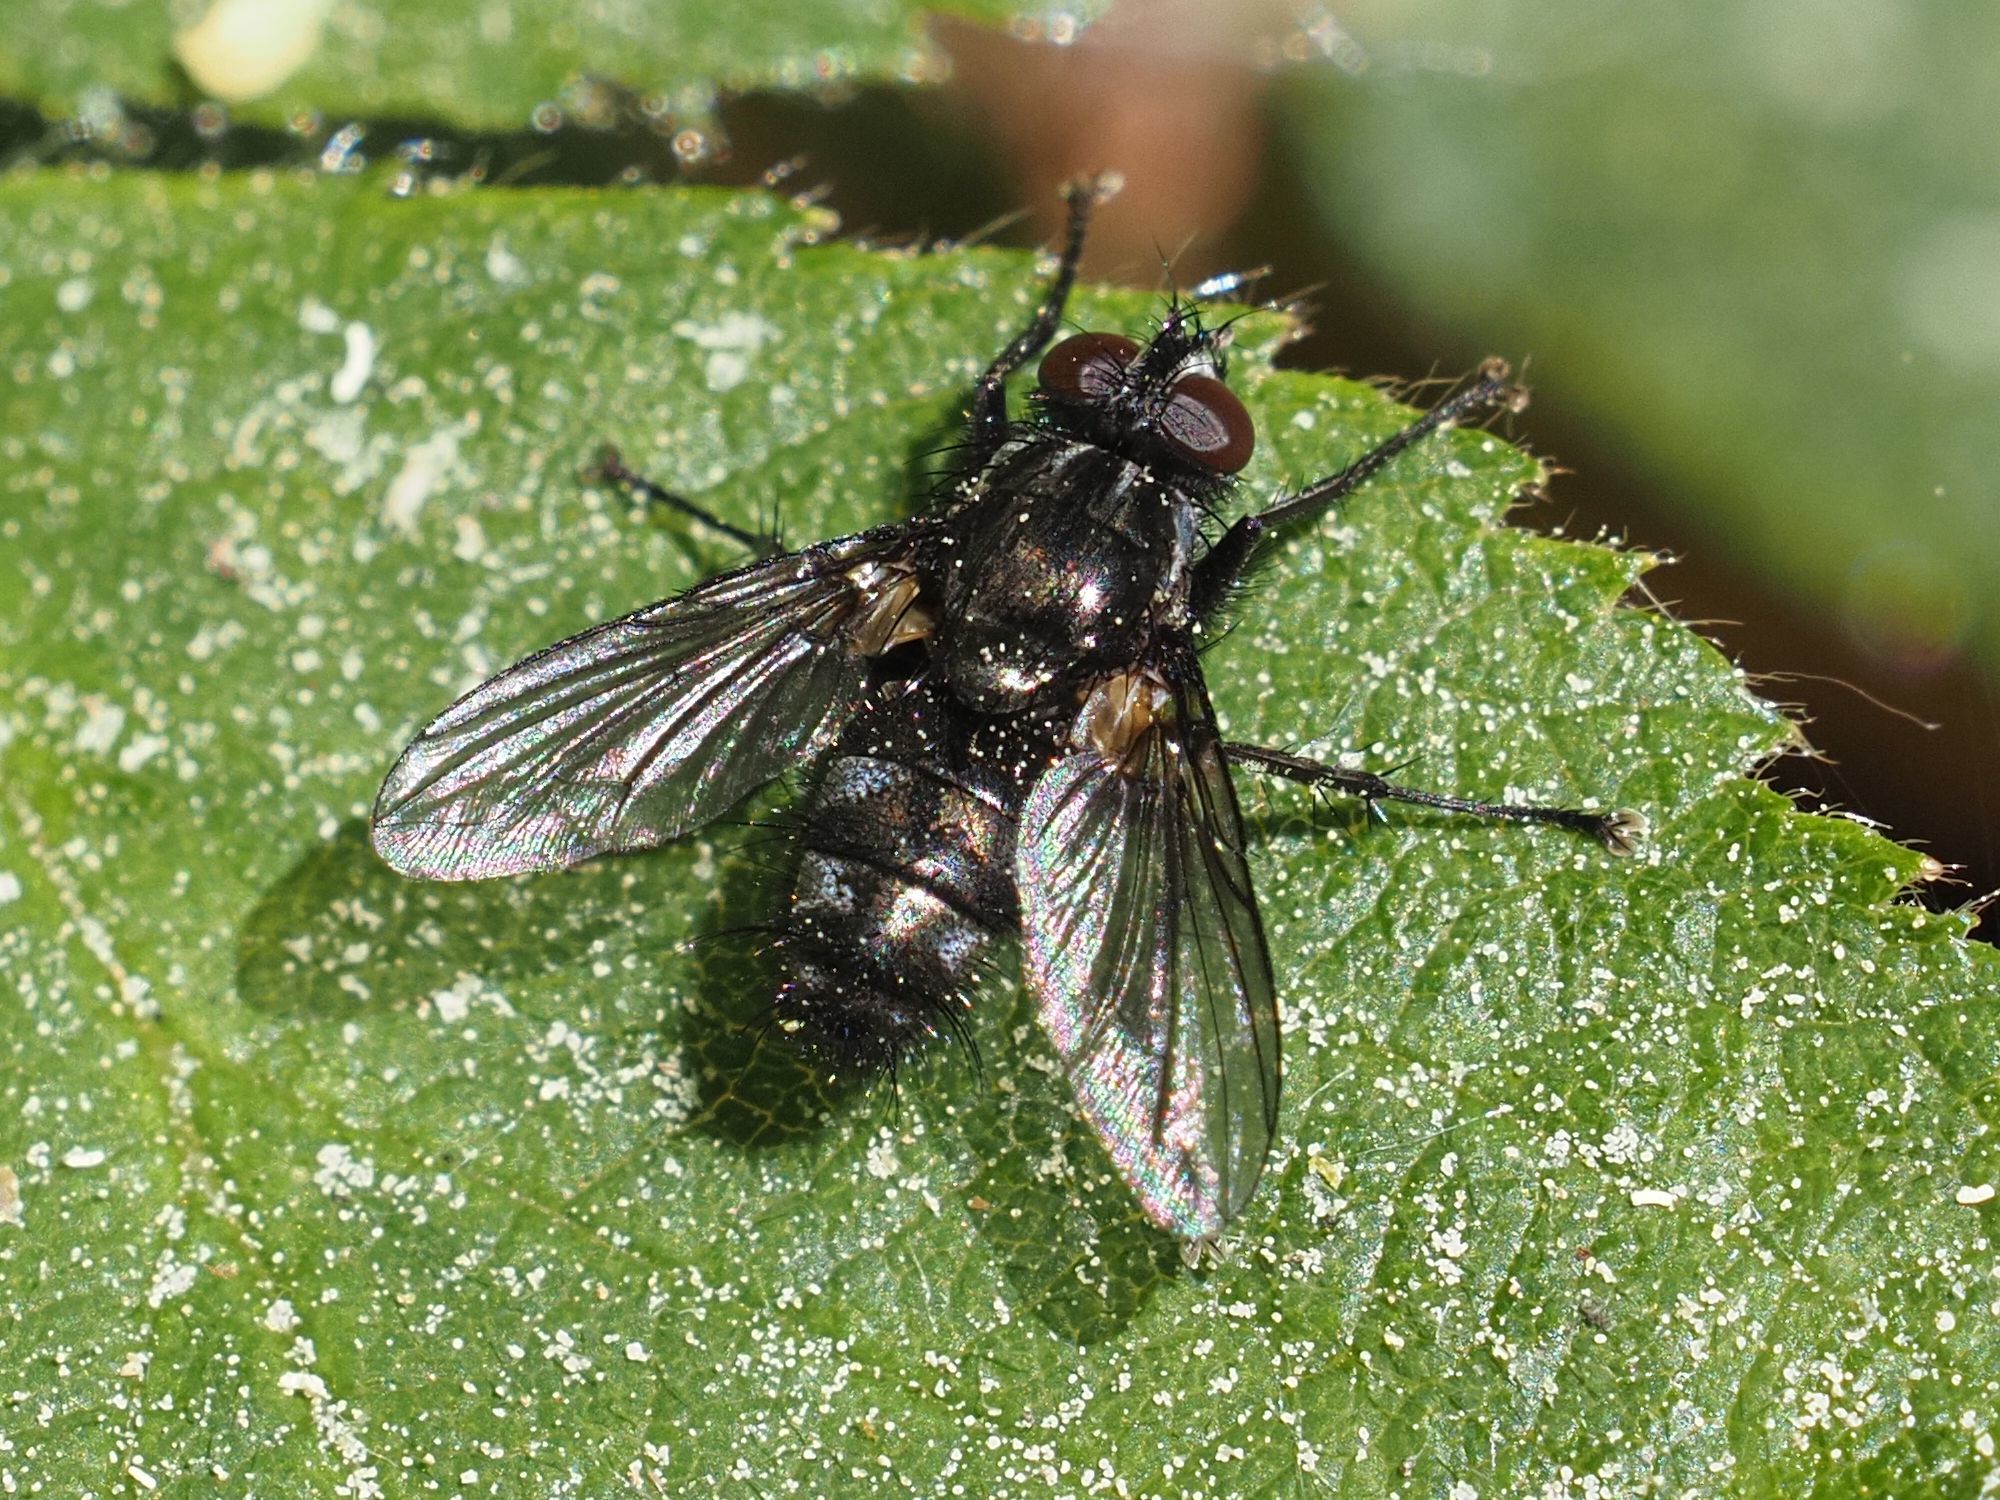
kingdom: Animalia
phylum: Arthropoda
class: Insecta
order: Diptera
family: Calliphoridae
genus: Rhinomorinia
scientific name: Rhinomorinia sarcophagina
